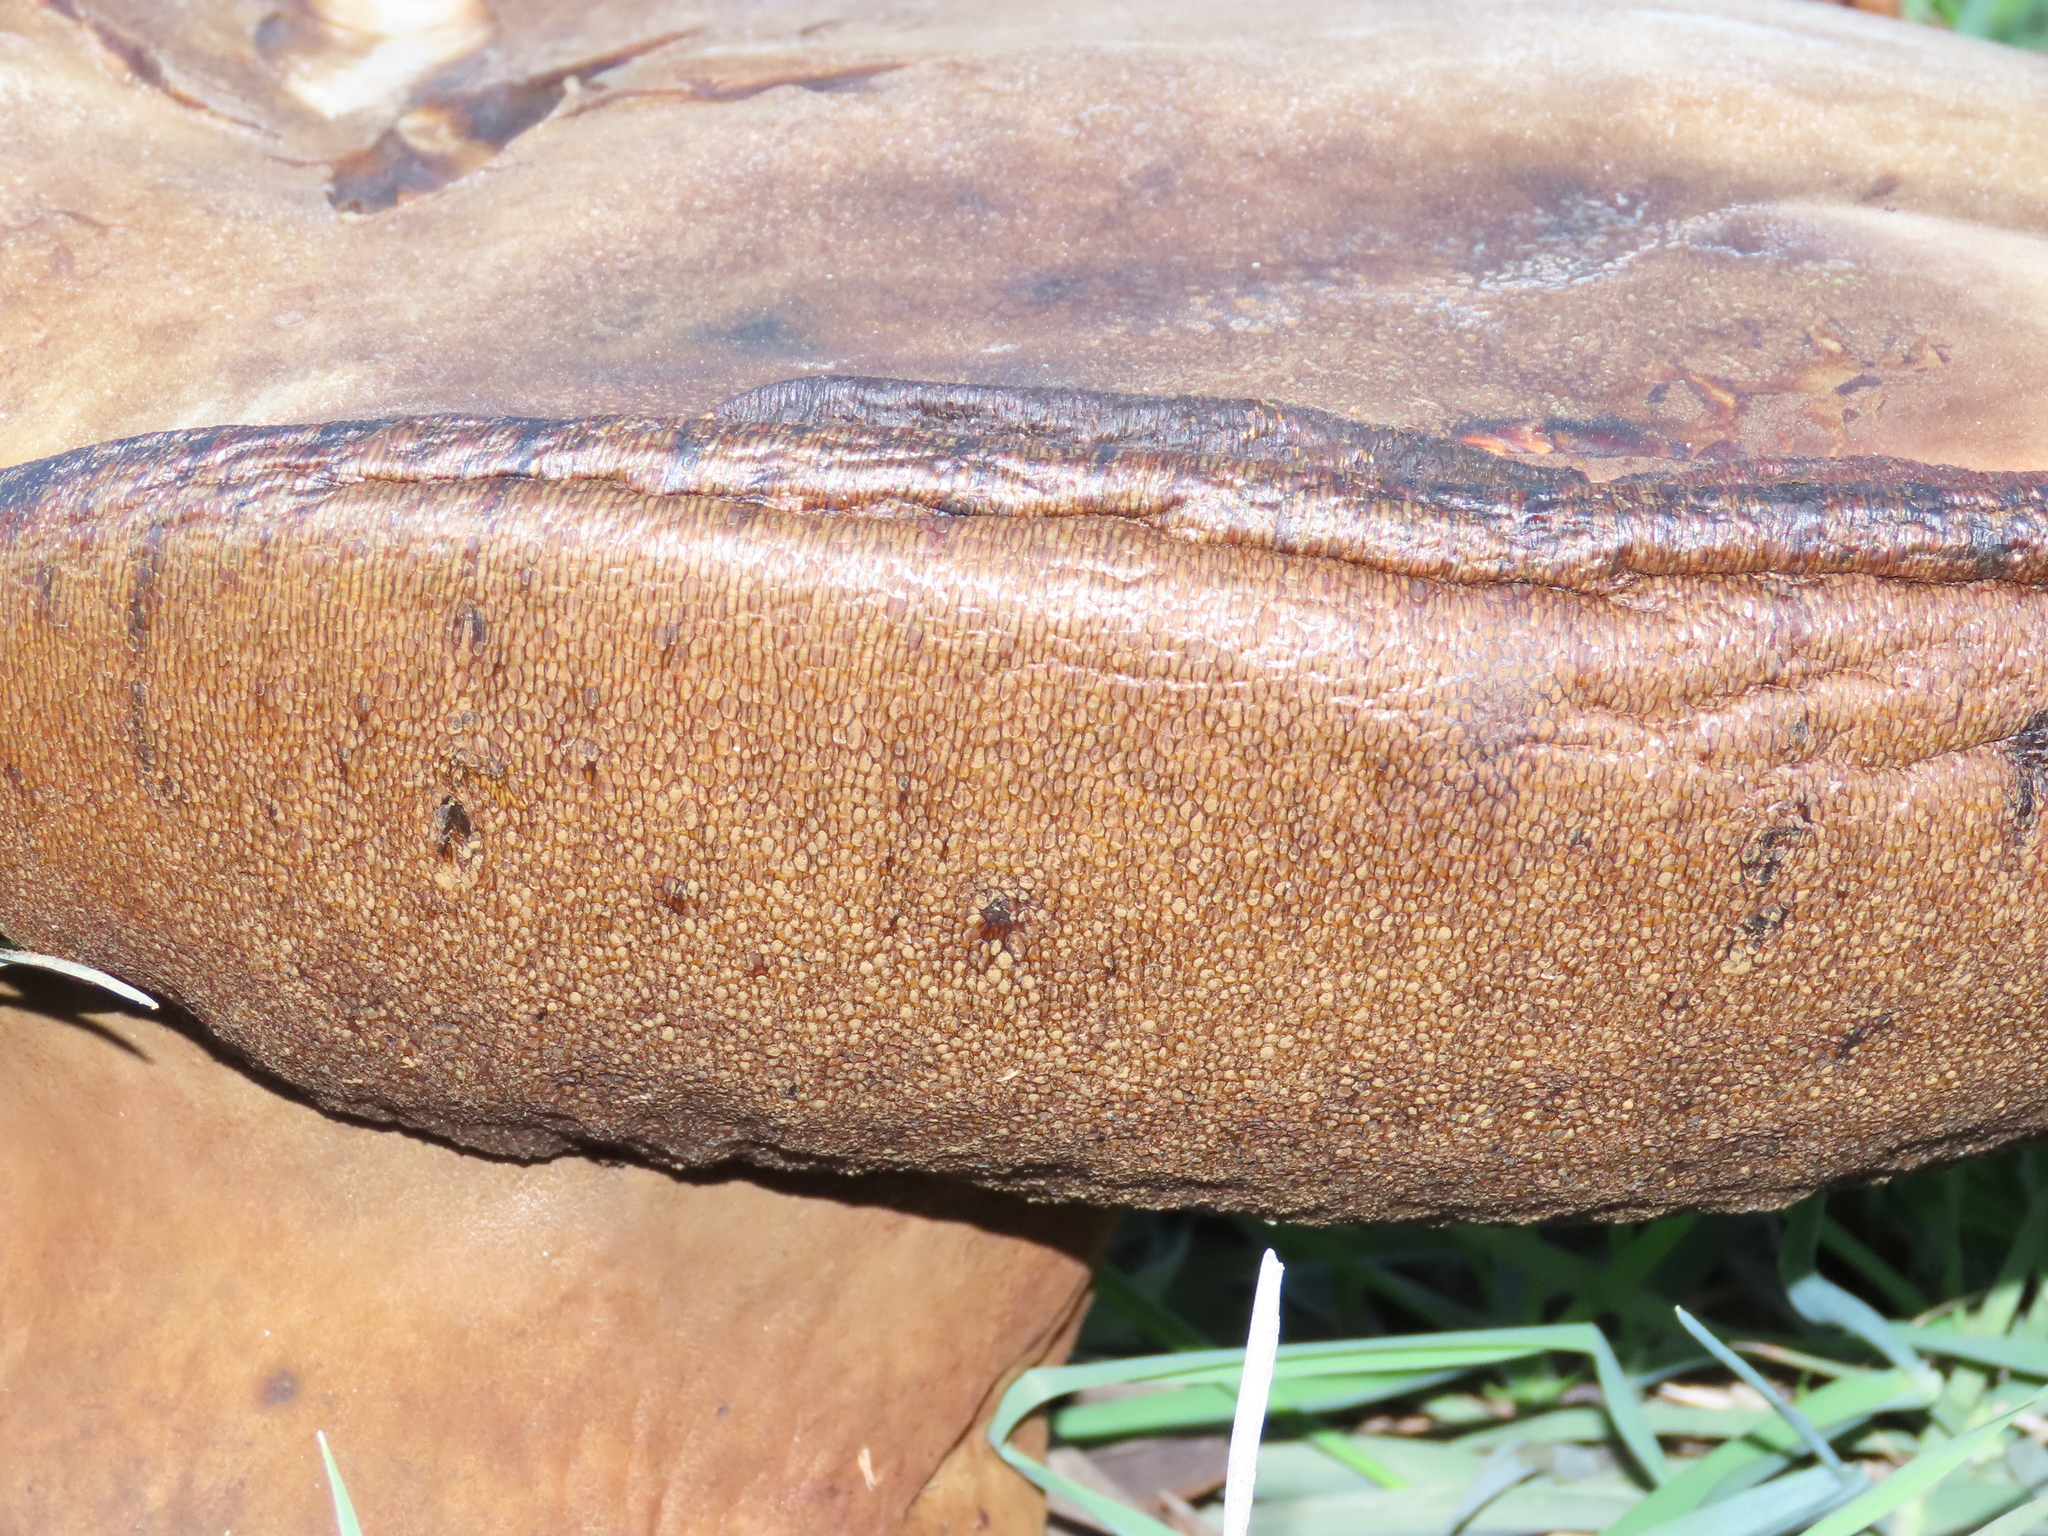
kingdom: Fungi
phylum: Basidiomycota
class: Agaricomycetes
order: Boletales
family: Boletinellaceae
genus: Phlebopus
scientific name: Phlebopus marginatus
